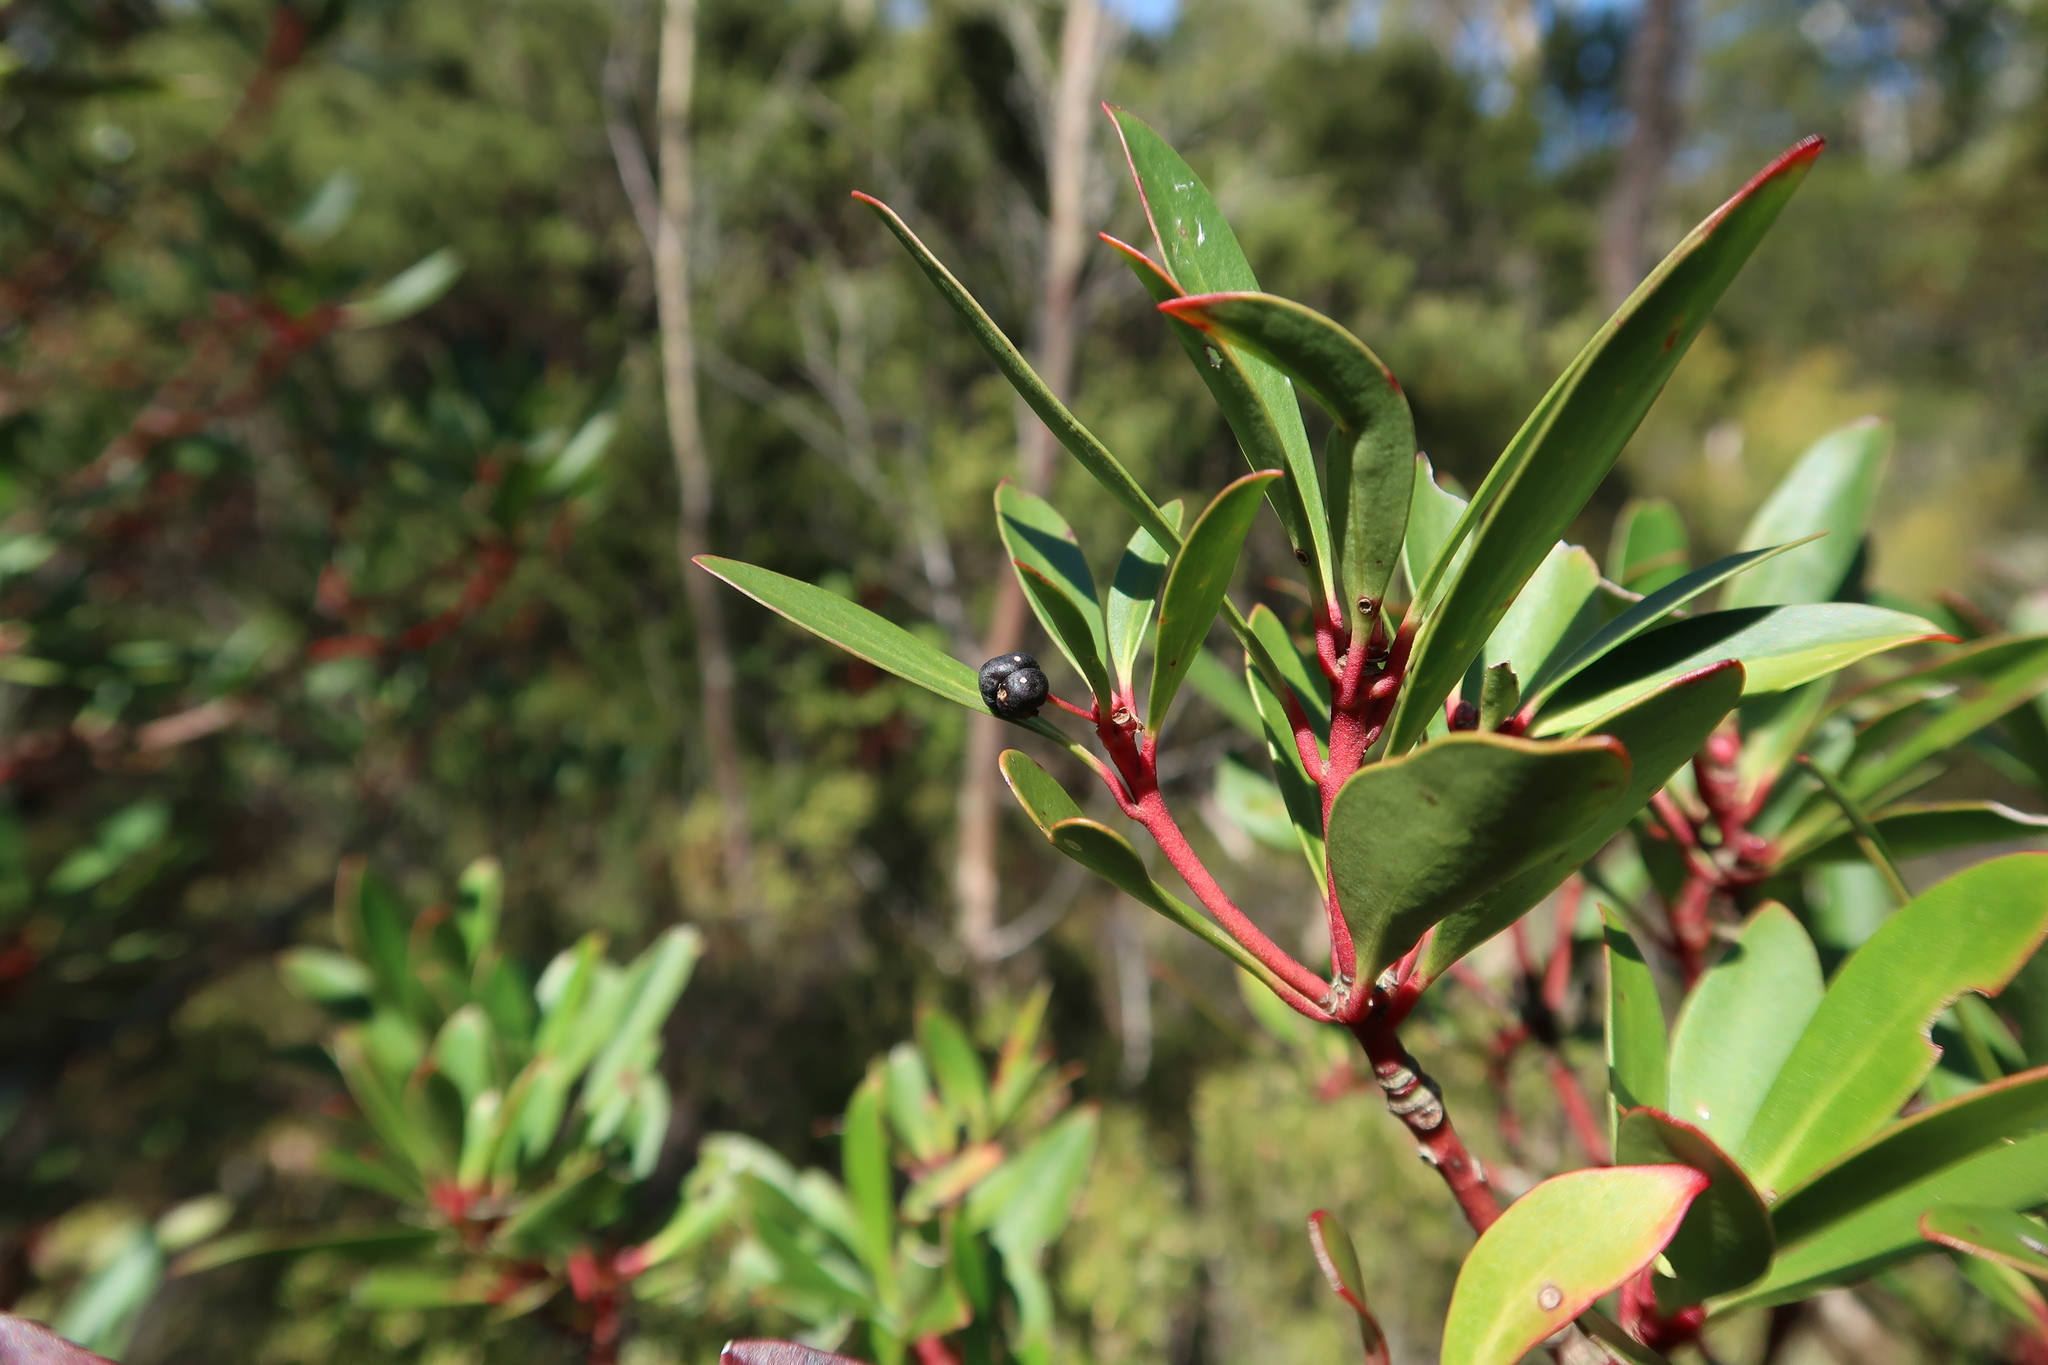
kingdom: Plantae
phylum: Tracheophyta
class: Magnoliopsida
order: Canellales
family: Winteraceae
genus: Drimys
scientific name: Drimys aromatica
